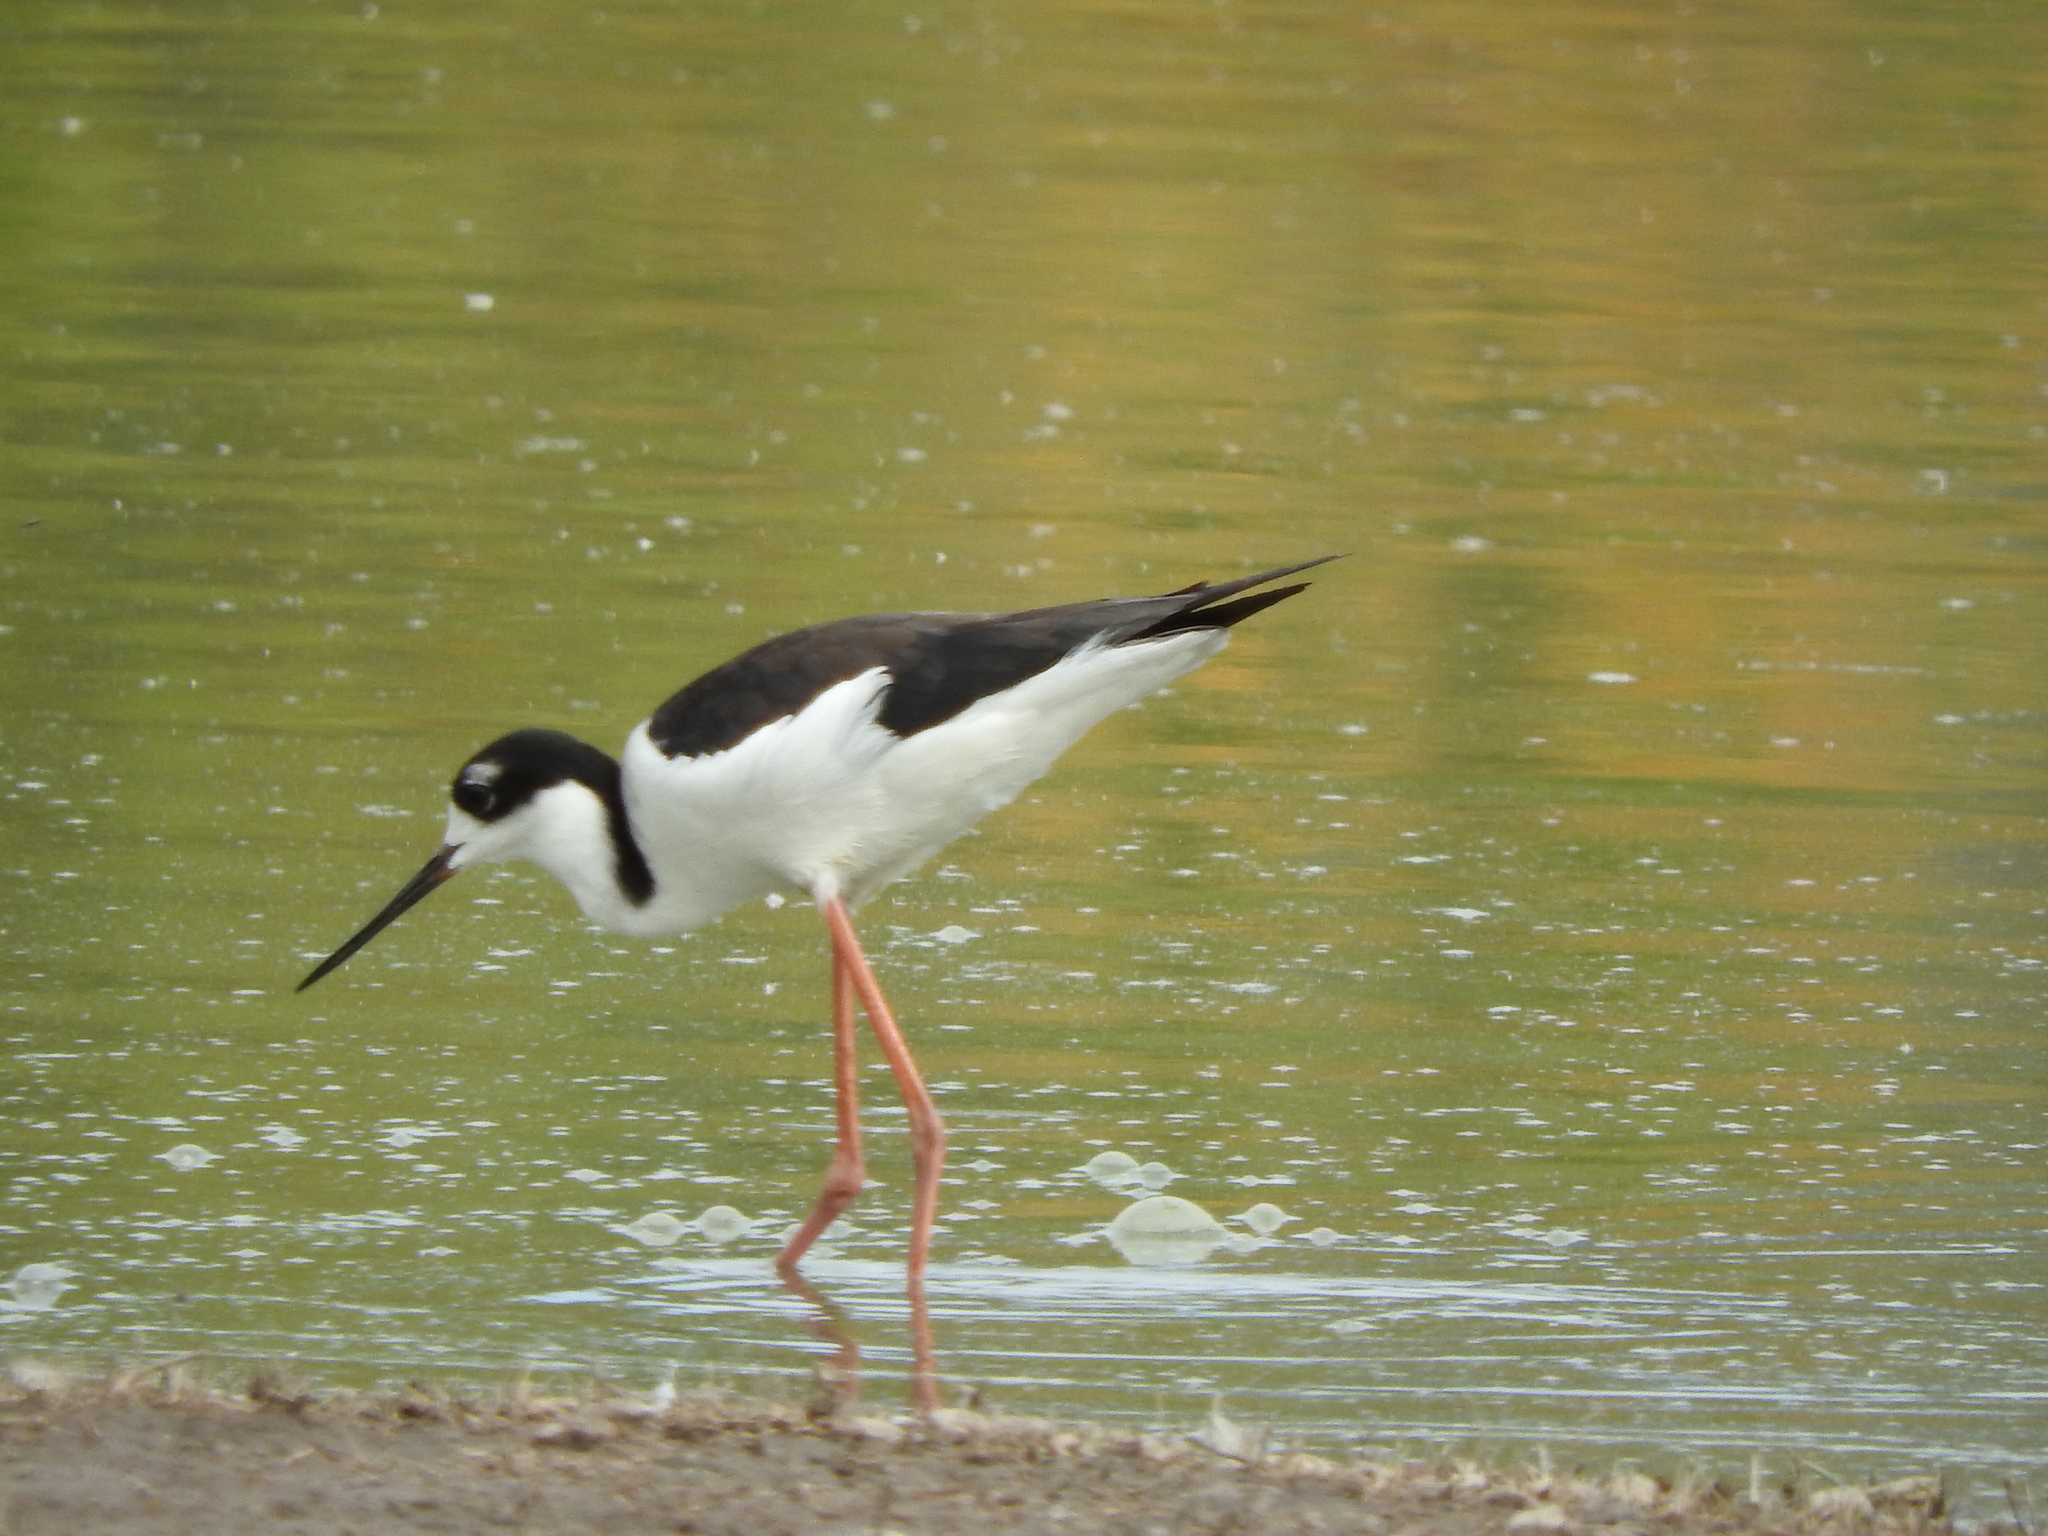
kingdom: Animalia
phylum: Chordata
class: Aves
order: Charadriiformes
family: Recurvirostridae
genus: Himantopus
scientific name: Himantopus mexicanus
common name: Black-necked stilt
